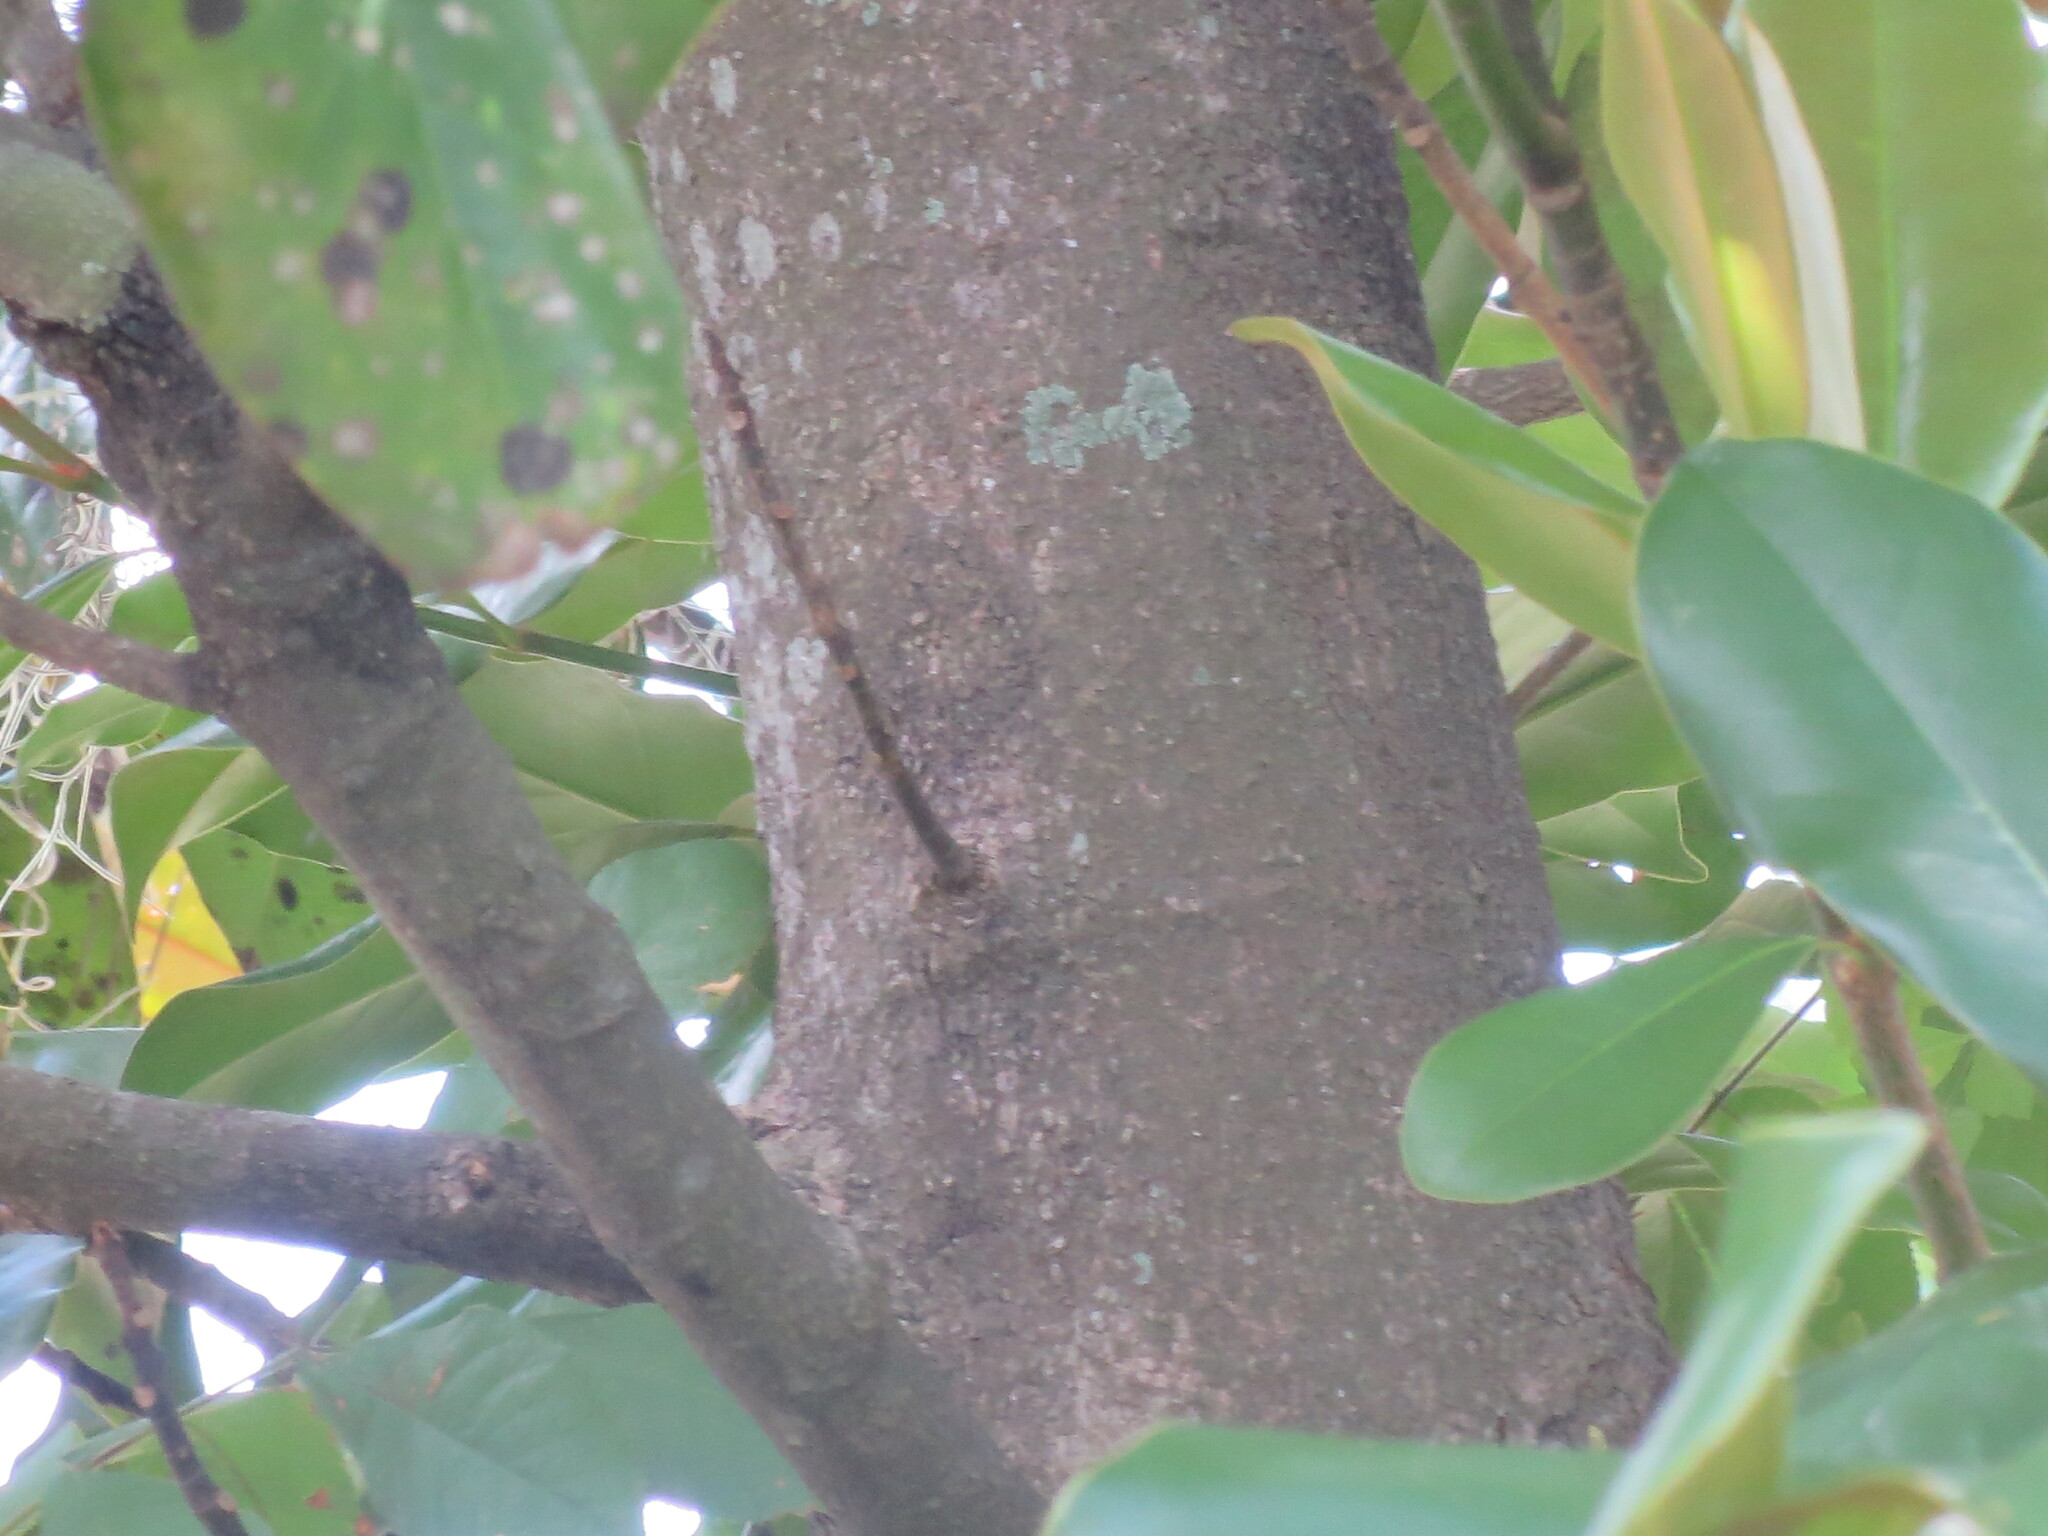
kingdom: Plantae
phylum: Tracheophyta
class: Magnoliopsida
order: Magnoliales
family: Magnoliaceae
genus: Magnolia
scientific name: Magnolia grandiflora
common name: Southern magnolia
